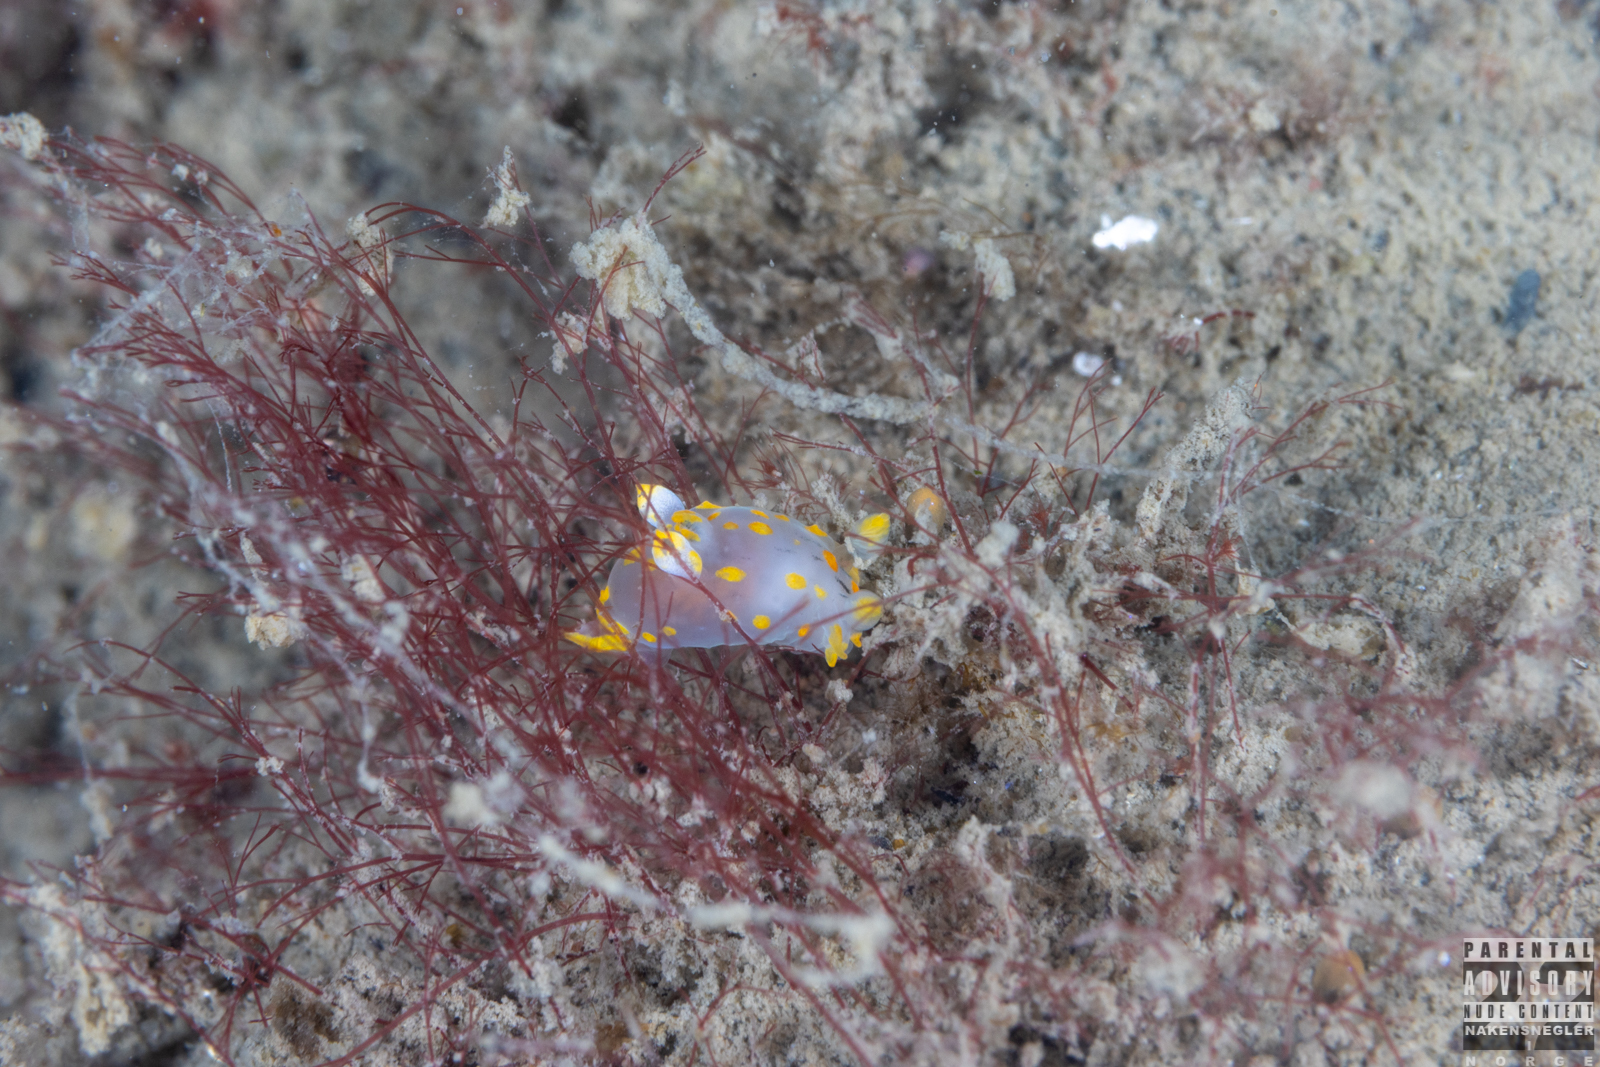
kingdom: Animalia
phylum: Mollusca
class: Gastropoda
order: Nudibranchia
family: Polyceridae
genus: Polycera
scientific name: Polycera quadrilineata
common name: Four-striped polycera
